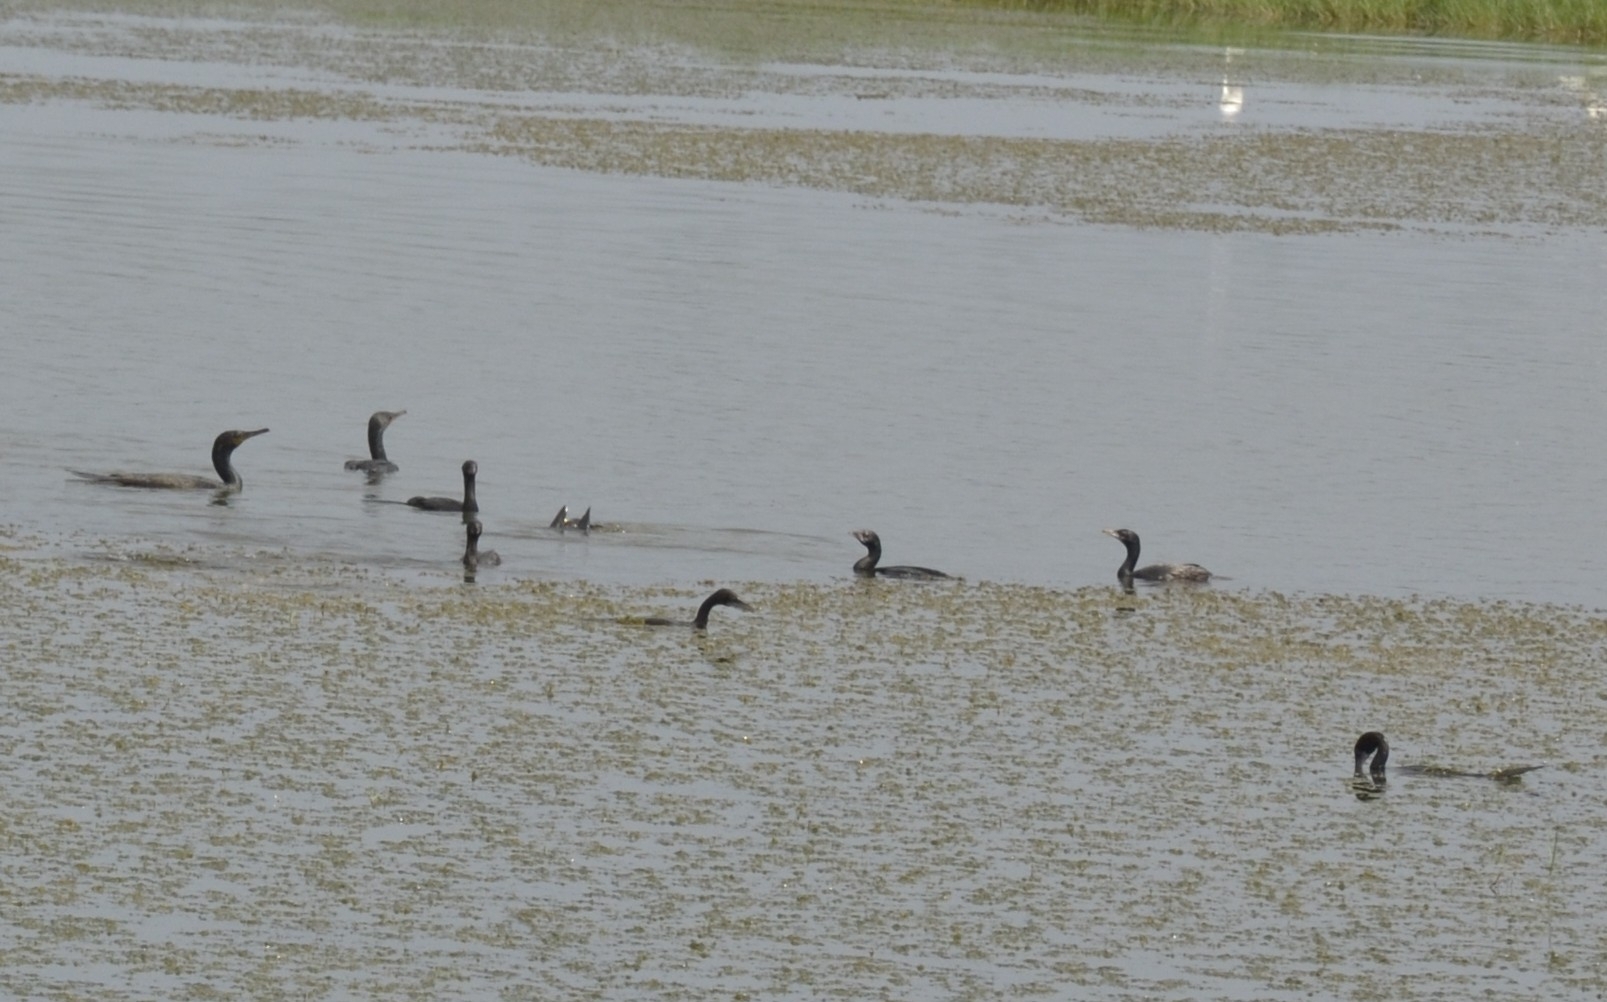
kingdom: Animalia
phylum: Chordata
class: Aves
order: Suliformes
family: Phalacrocoracidae
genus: Microcarbo
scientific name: Microcarbo niger
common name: Little cormorant
